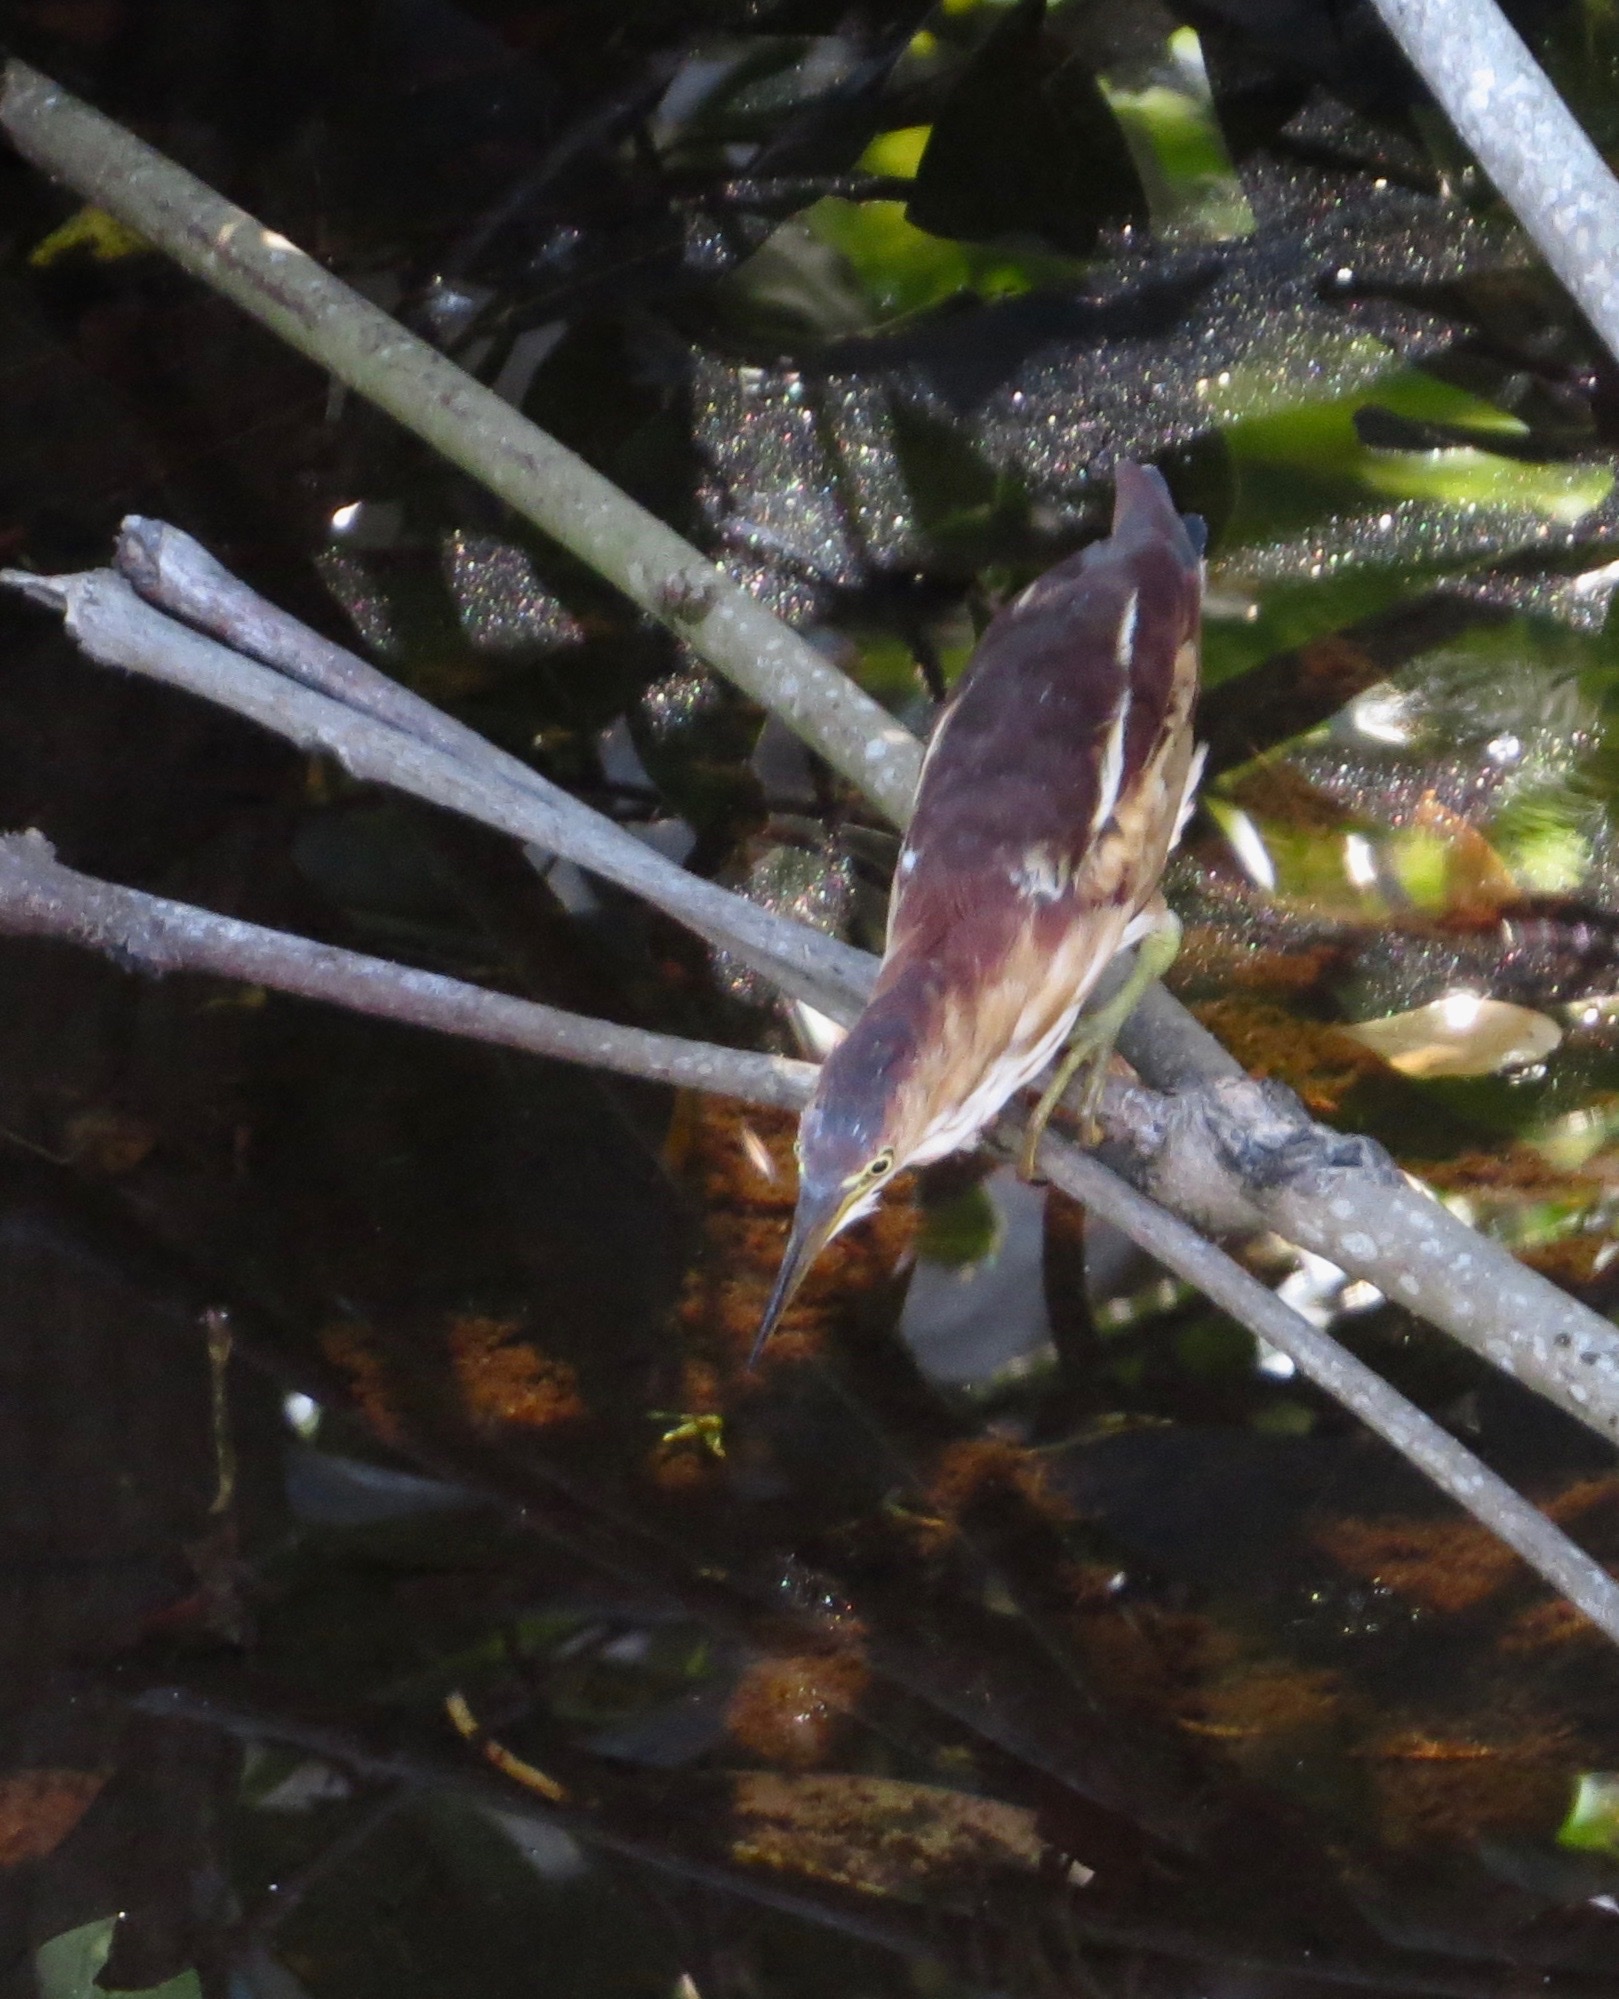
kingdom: Animalia
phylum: Chordata
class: Aves
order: Pelecaniformes
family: Ardeidae
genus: Ixobrychus
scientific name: Ixobrychus exilis
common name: Least bittern
